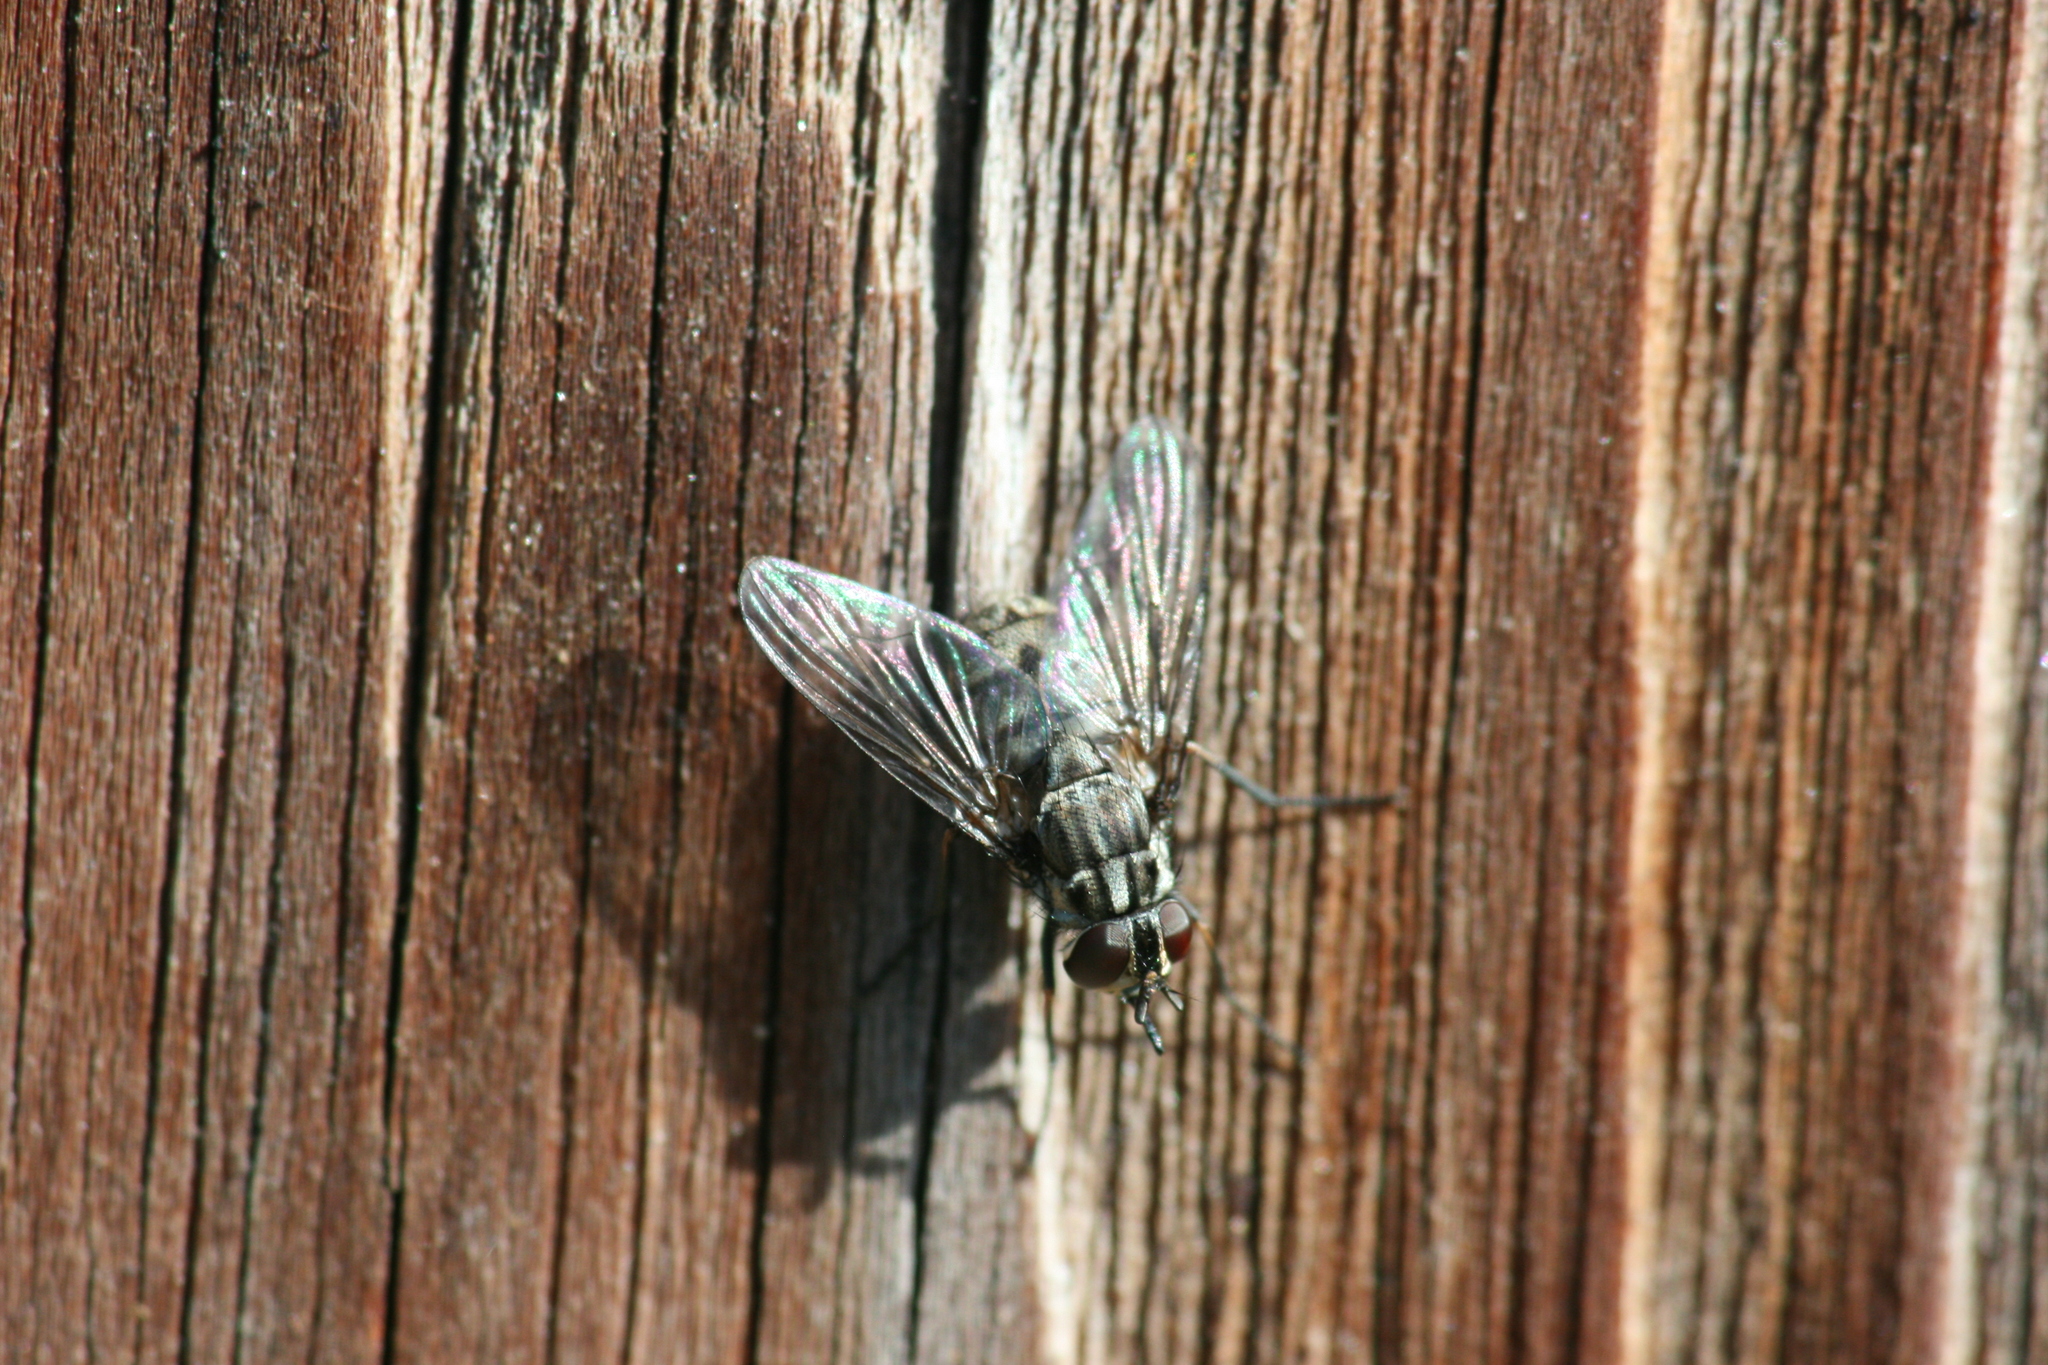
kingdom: Animalia
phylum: Arthropoda
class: Insecta
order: Diptera
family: Muscidae
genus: Stomoxys
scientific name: Stomoxys calcitrans
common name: Stable fly
